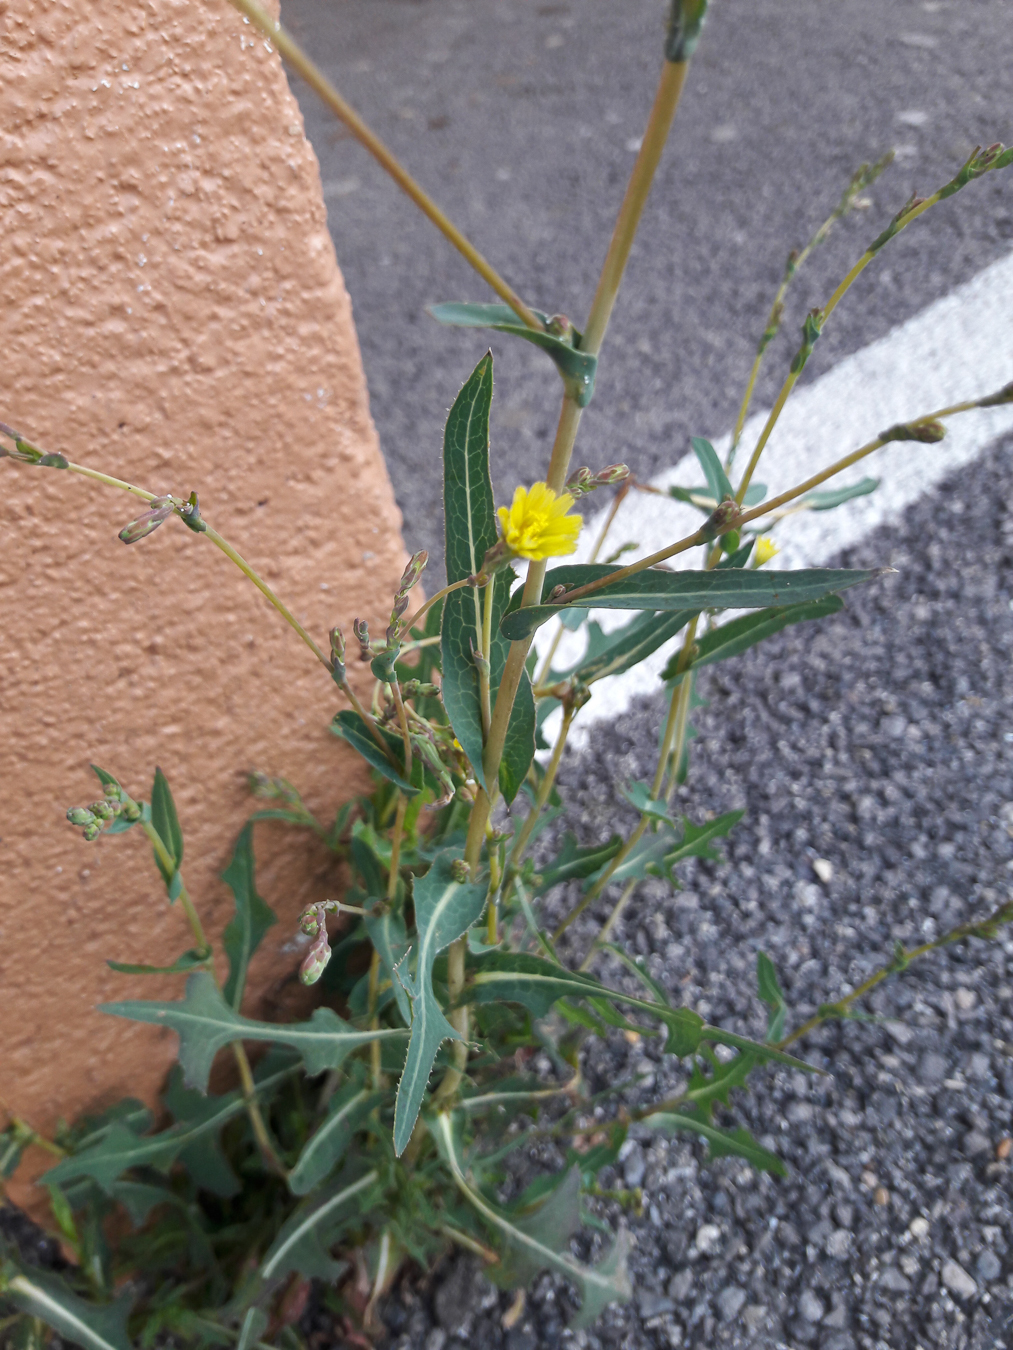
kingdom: Plantae
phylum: Tracheophyta
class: Magnoliopsida
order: Asterales
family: Asteraceae
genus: Lactuca
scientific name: Lactuca serriola
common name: Prickly lettuce
